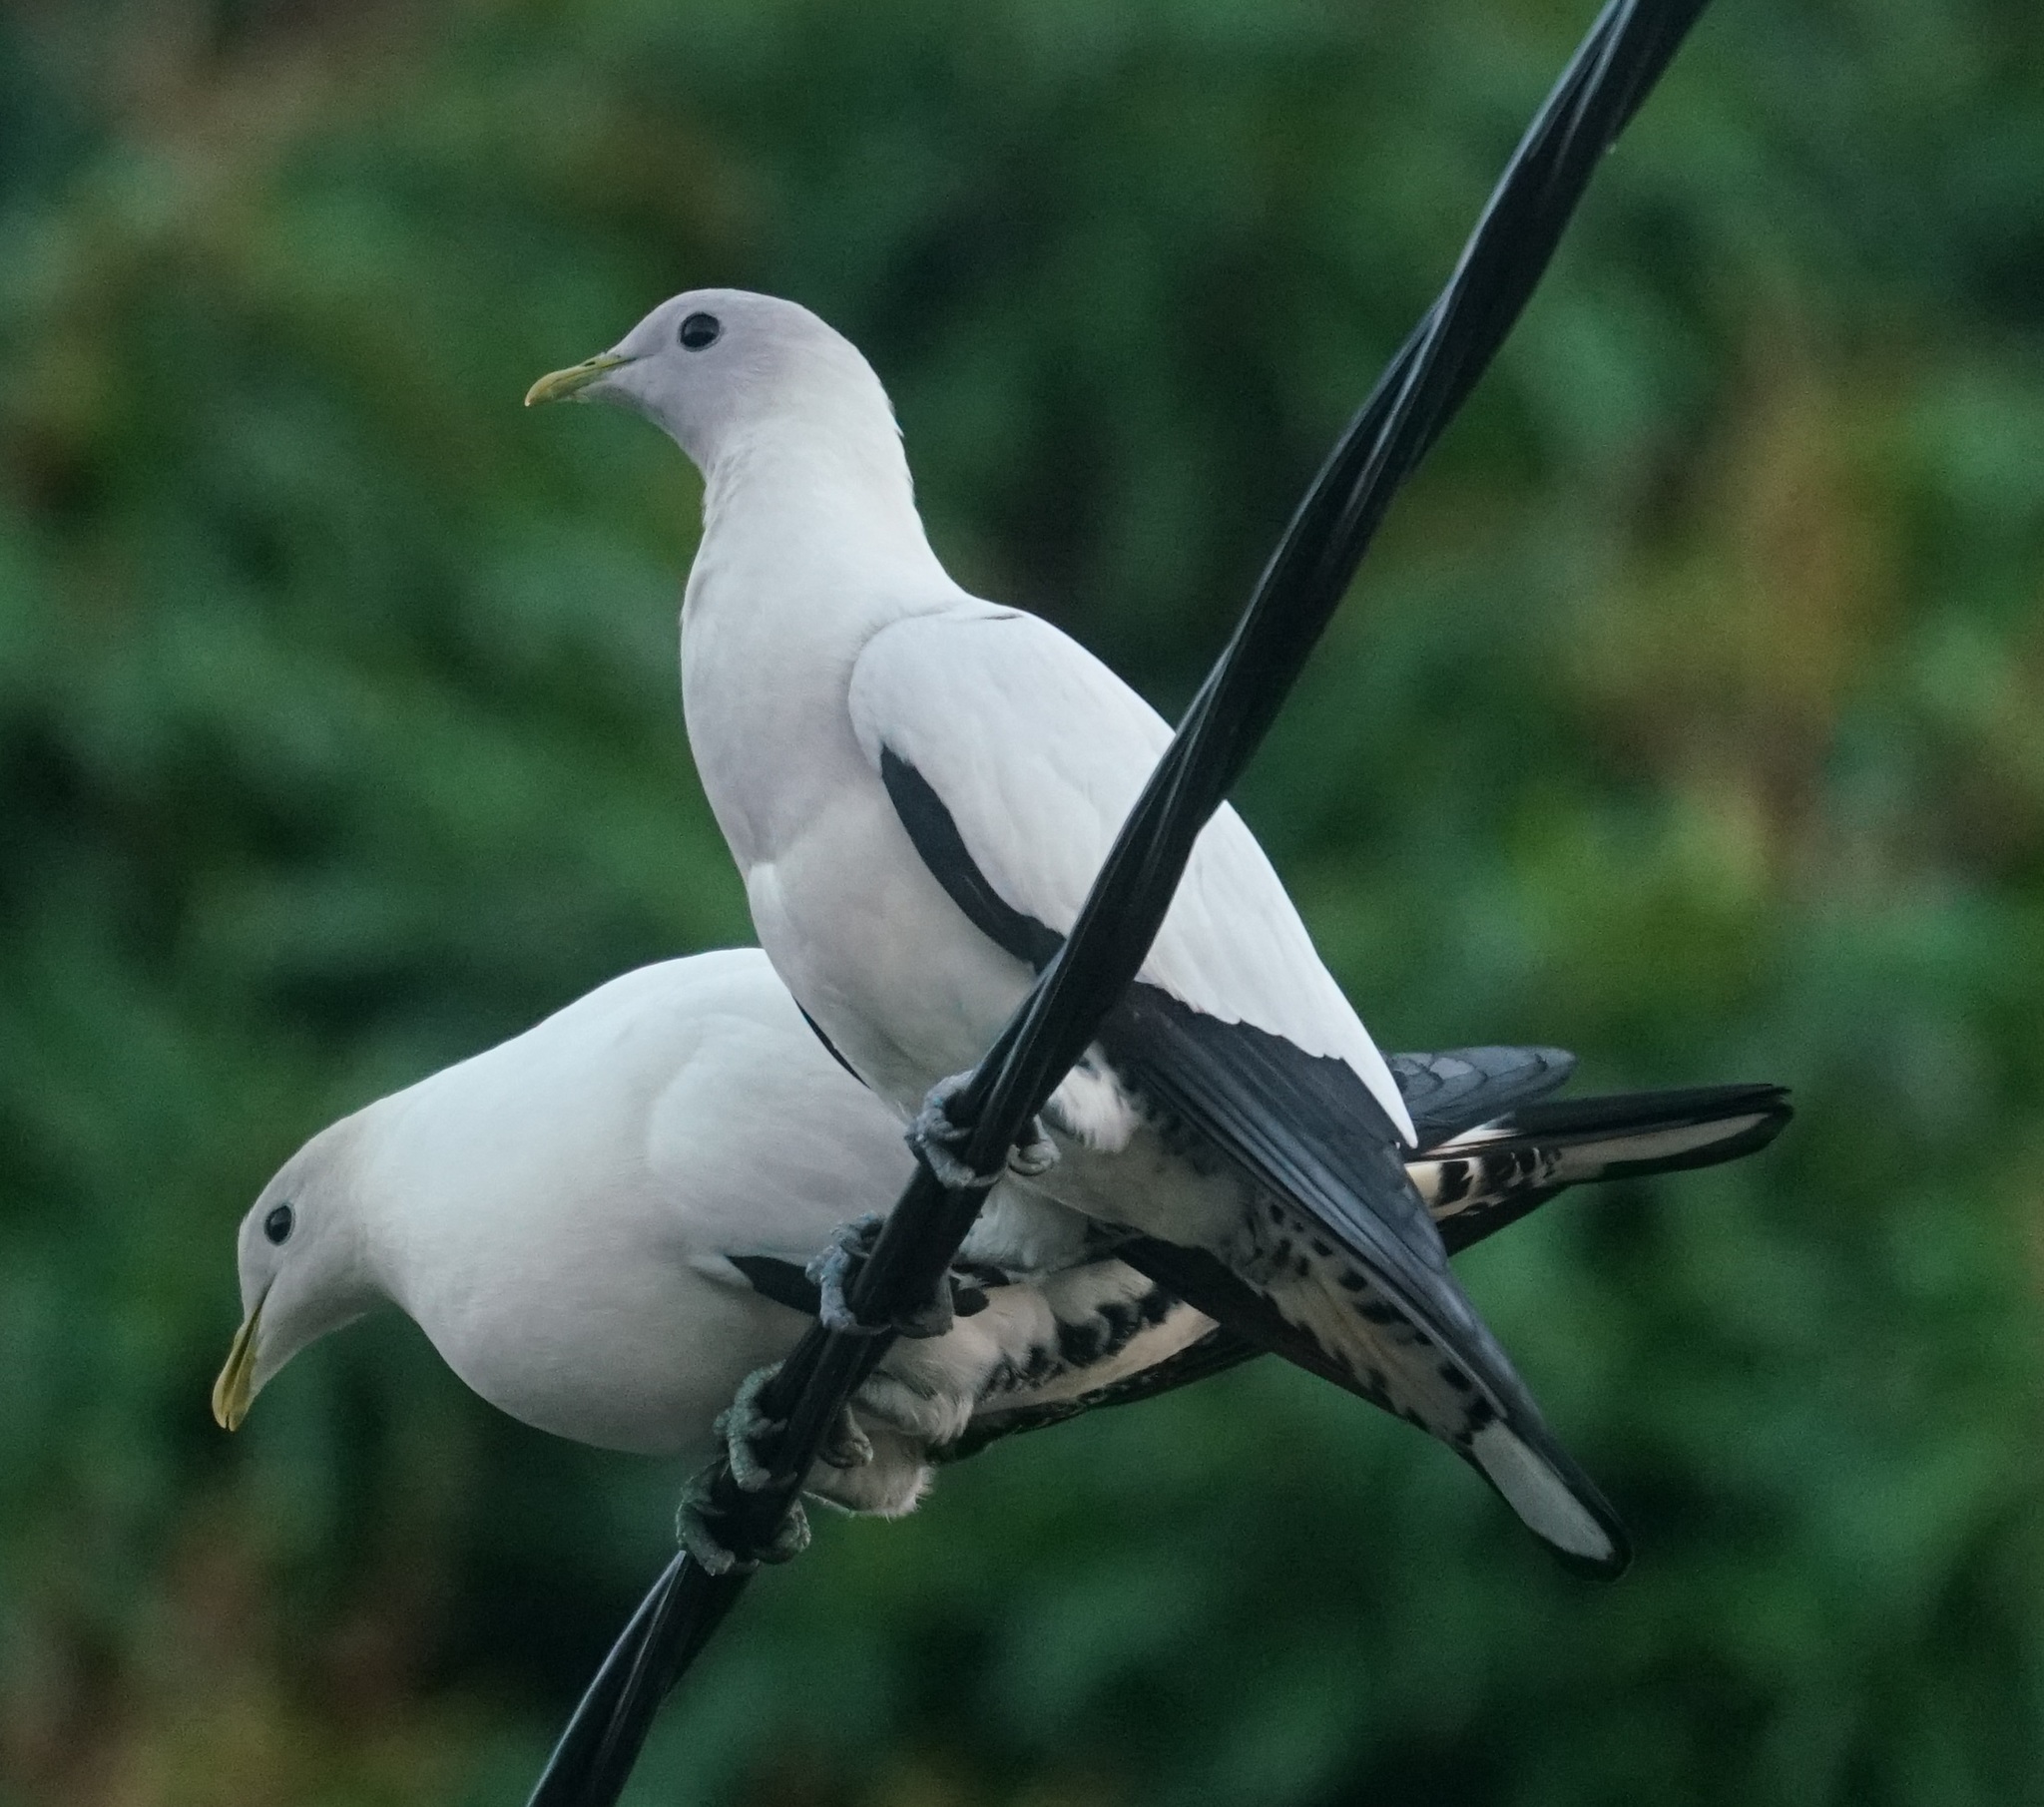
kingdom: Animalia
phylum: Chordata
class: Aves
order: Columbiformes
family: Columbidae
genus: Ducula
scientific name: Ducula spilorrhoa
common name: Torresian imperial pigeon
